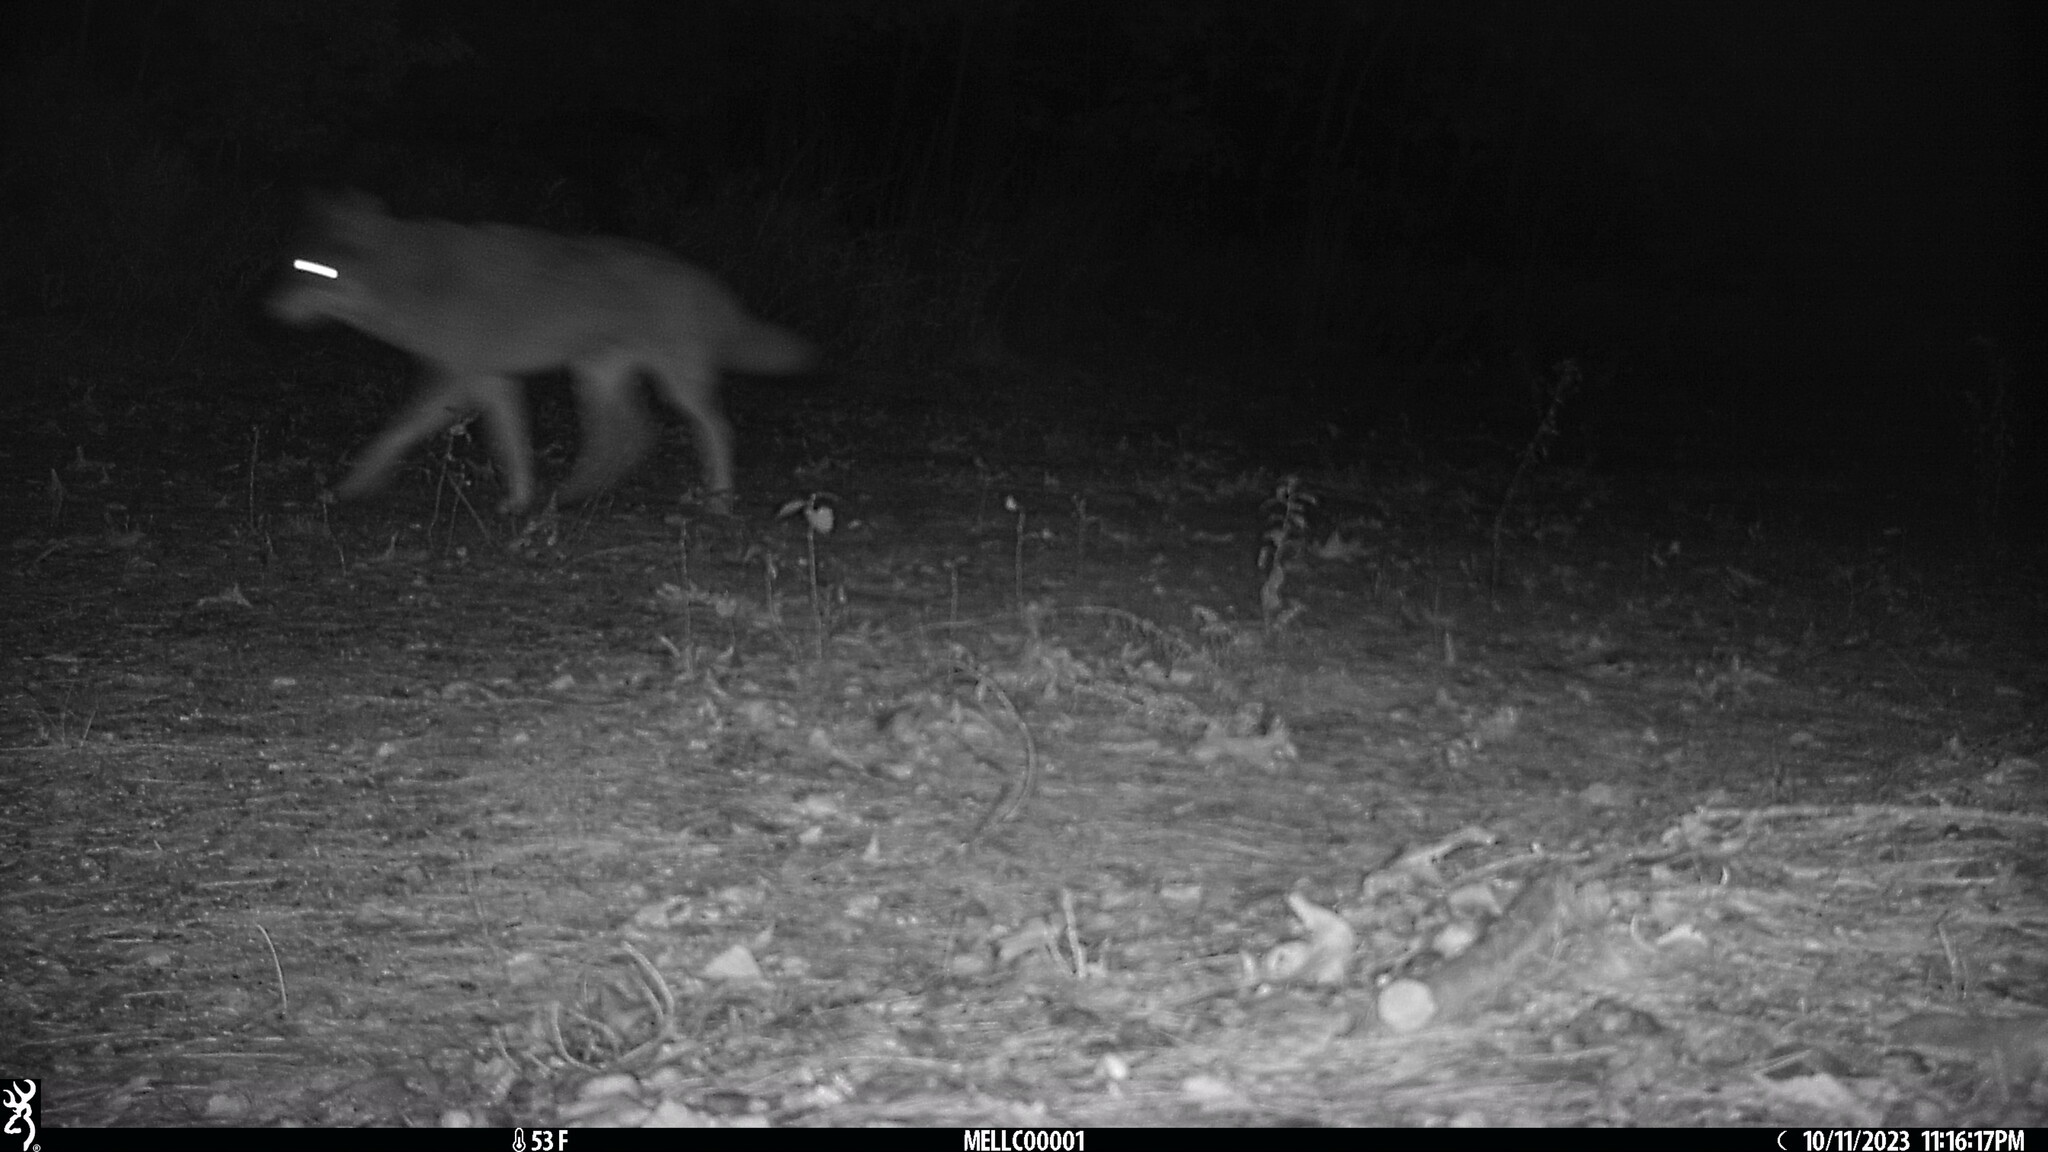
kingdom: Animalia
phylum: Chordata
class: Mammalia
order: Carnivora
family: Canidae
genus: Canis
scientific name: Canis latrans
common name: Coyote
